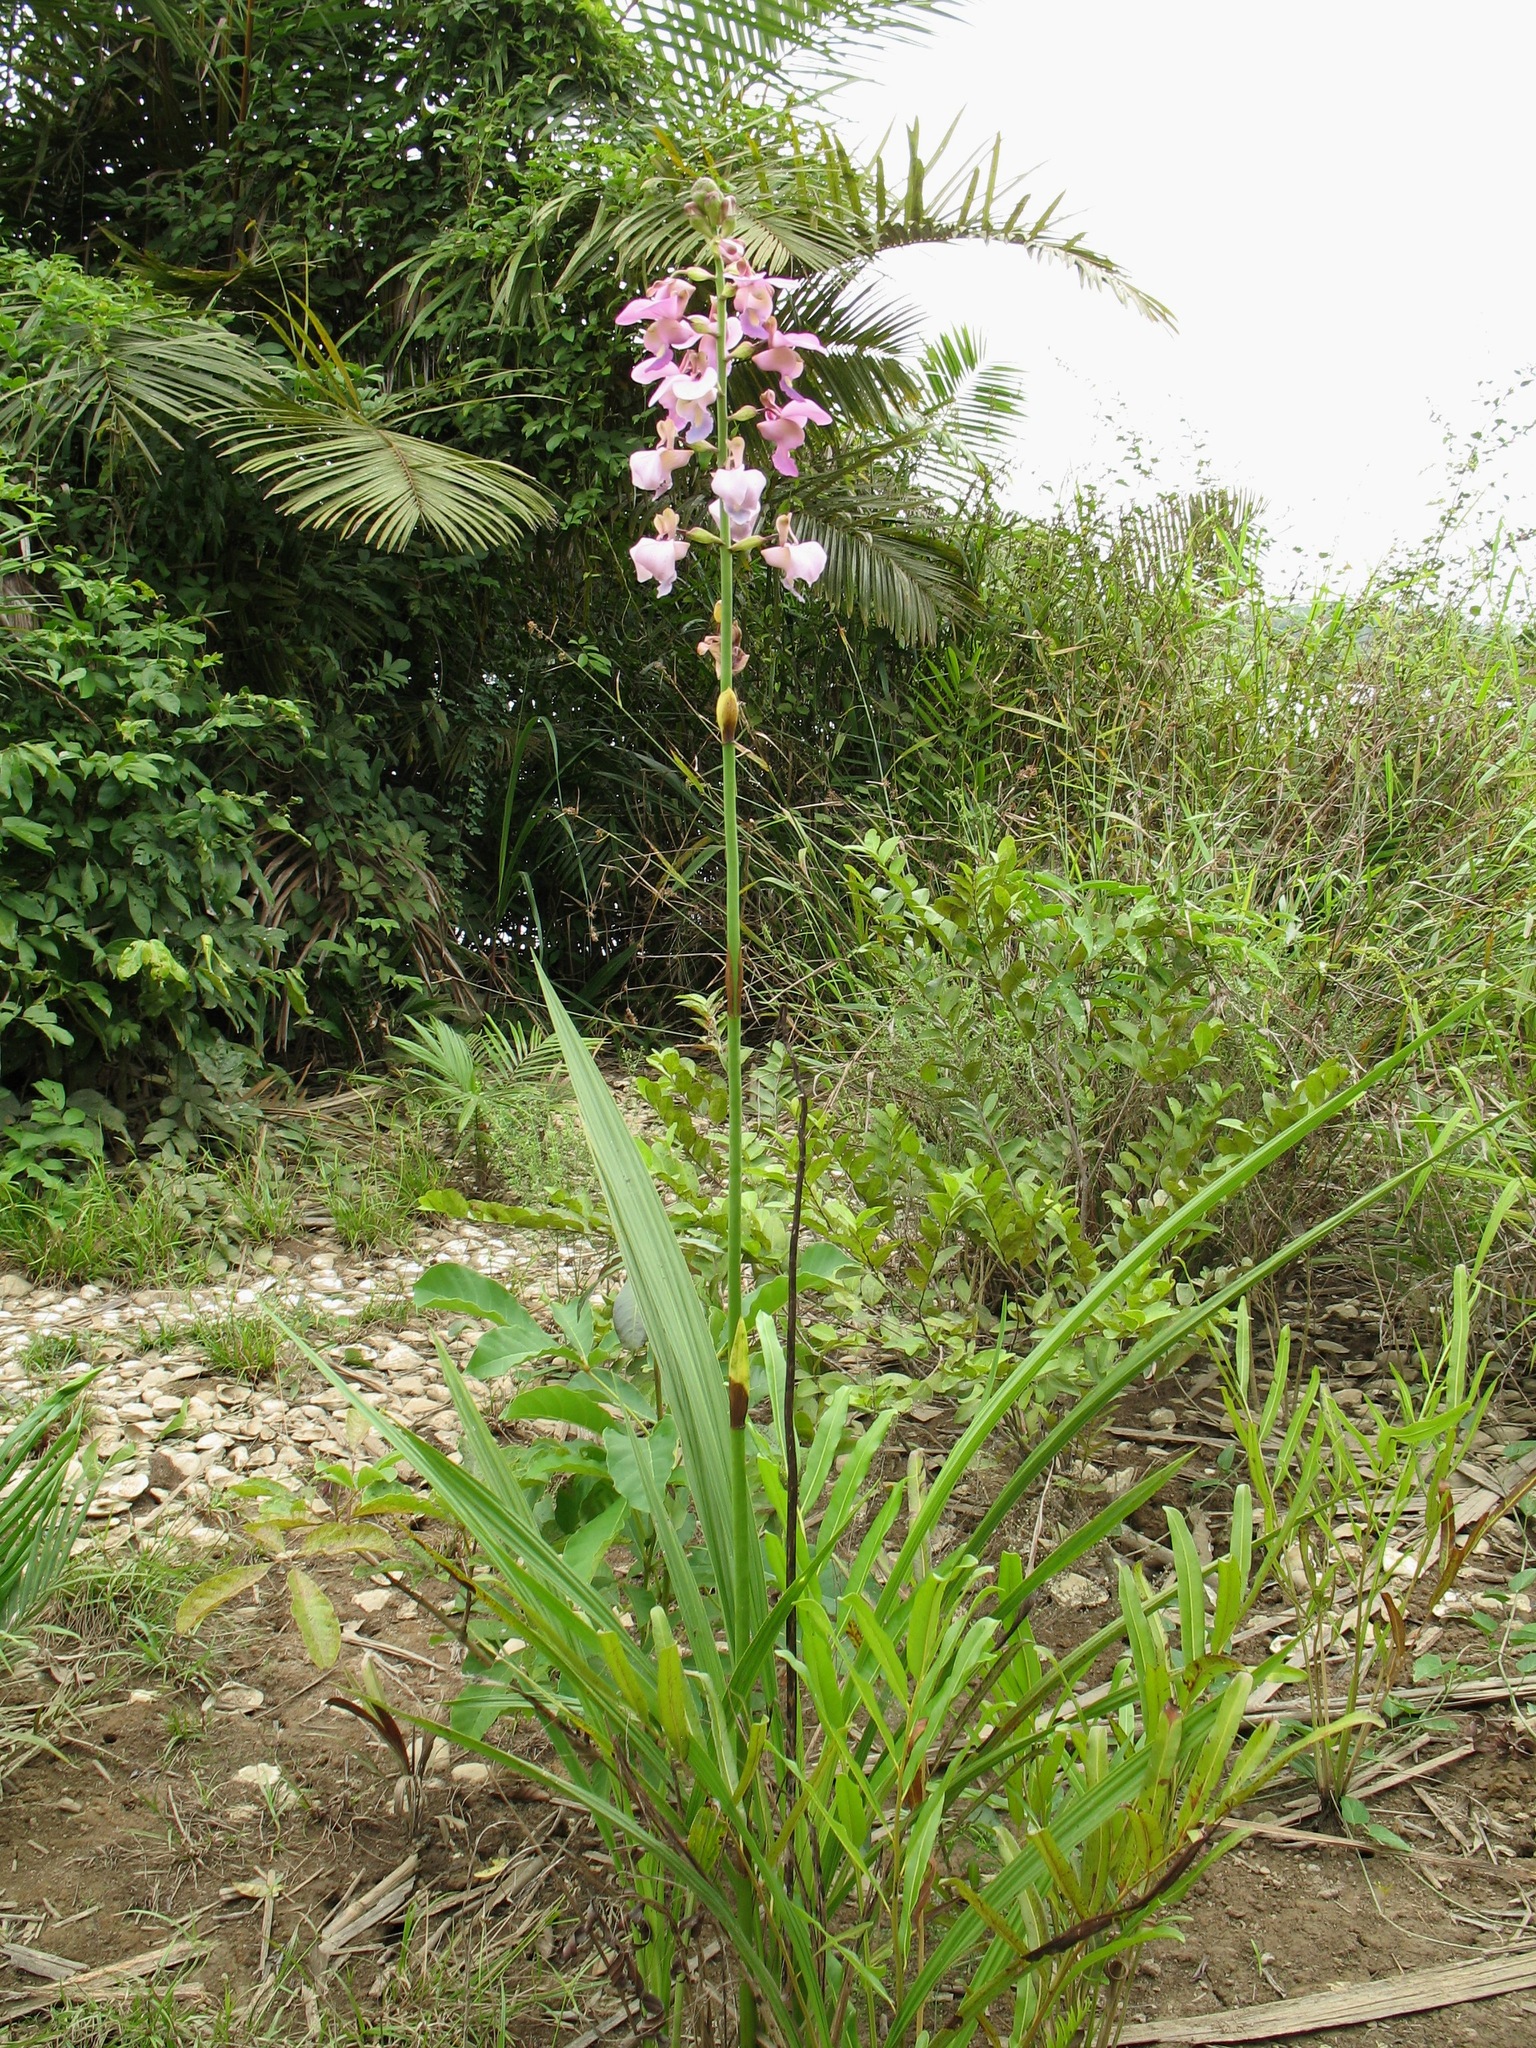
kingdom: Plantae
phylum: Tracheophyta
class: Liliopsida
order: Asparagales
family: Orchidaceae
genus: Eulophia
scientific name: Eulophia bouliawongo
